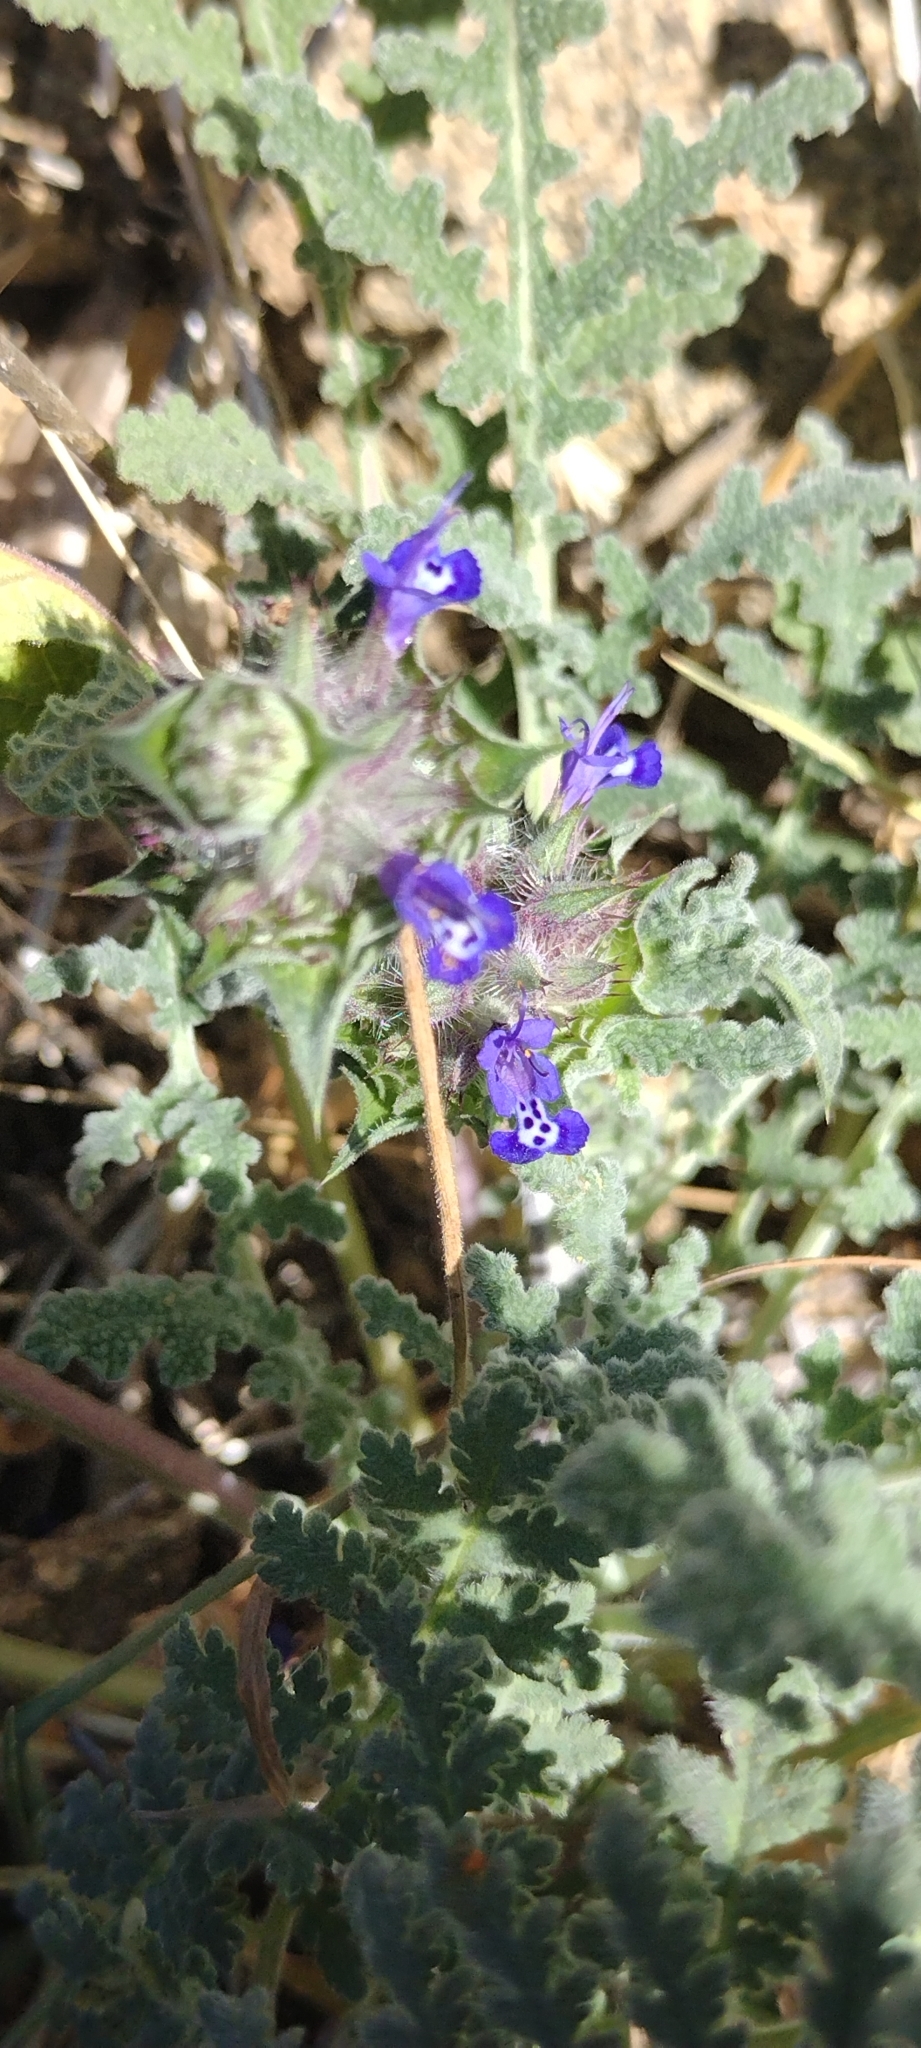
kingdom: Plantae
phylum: Tracheophyta
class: Magnoliopsida
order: Lamiales
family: Lamiaceae
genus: Salvia
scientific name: Salvia columbariae
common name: Chia
